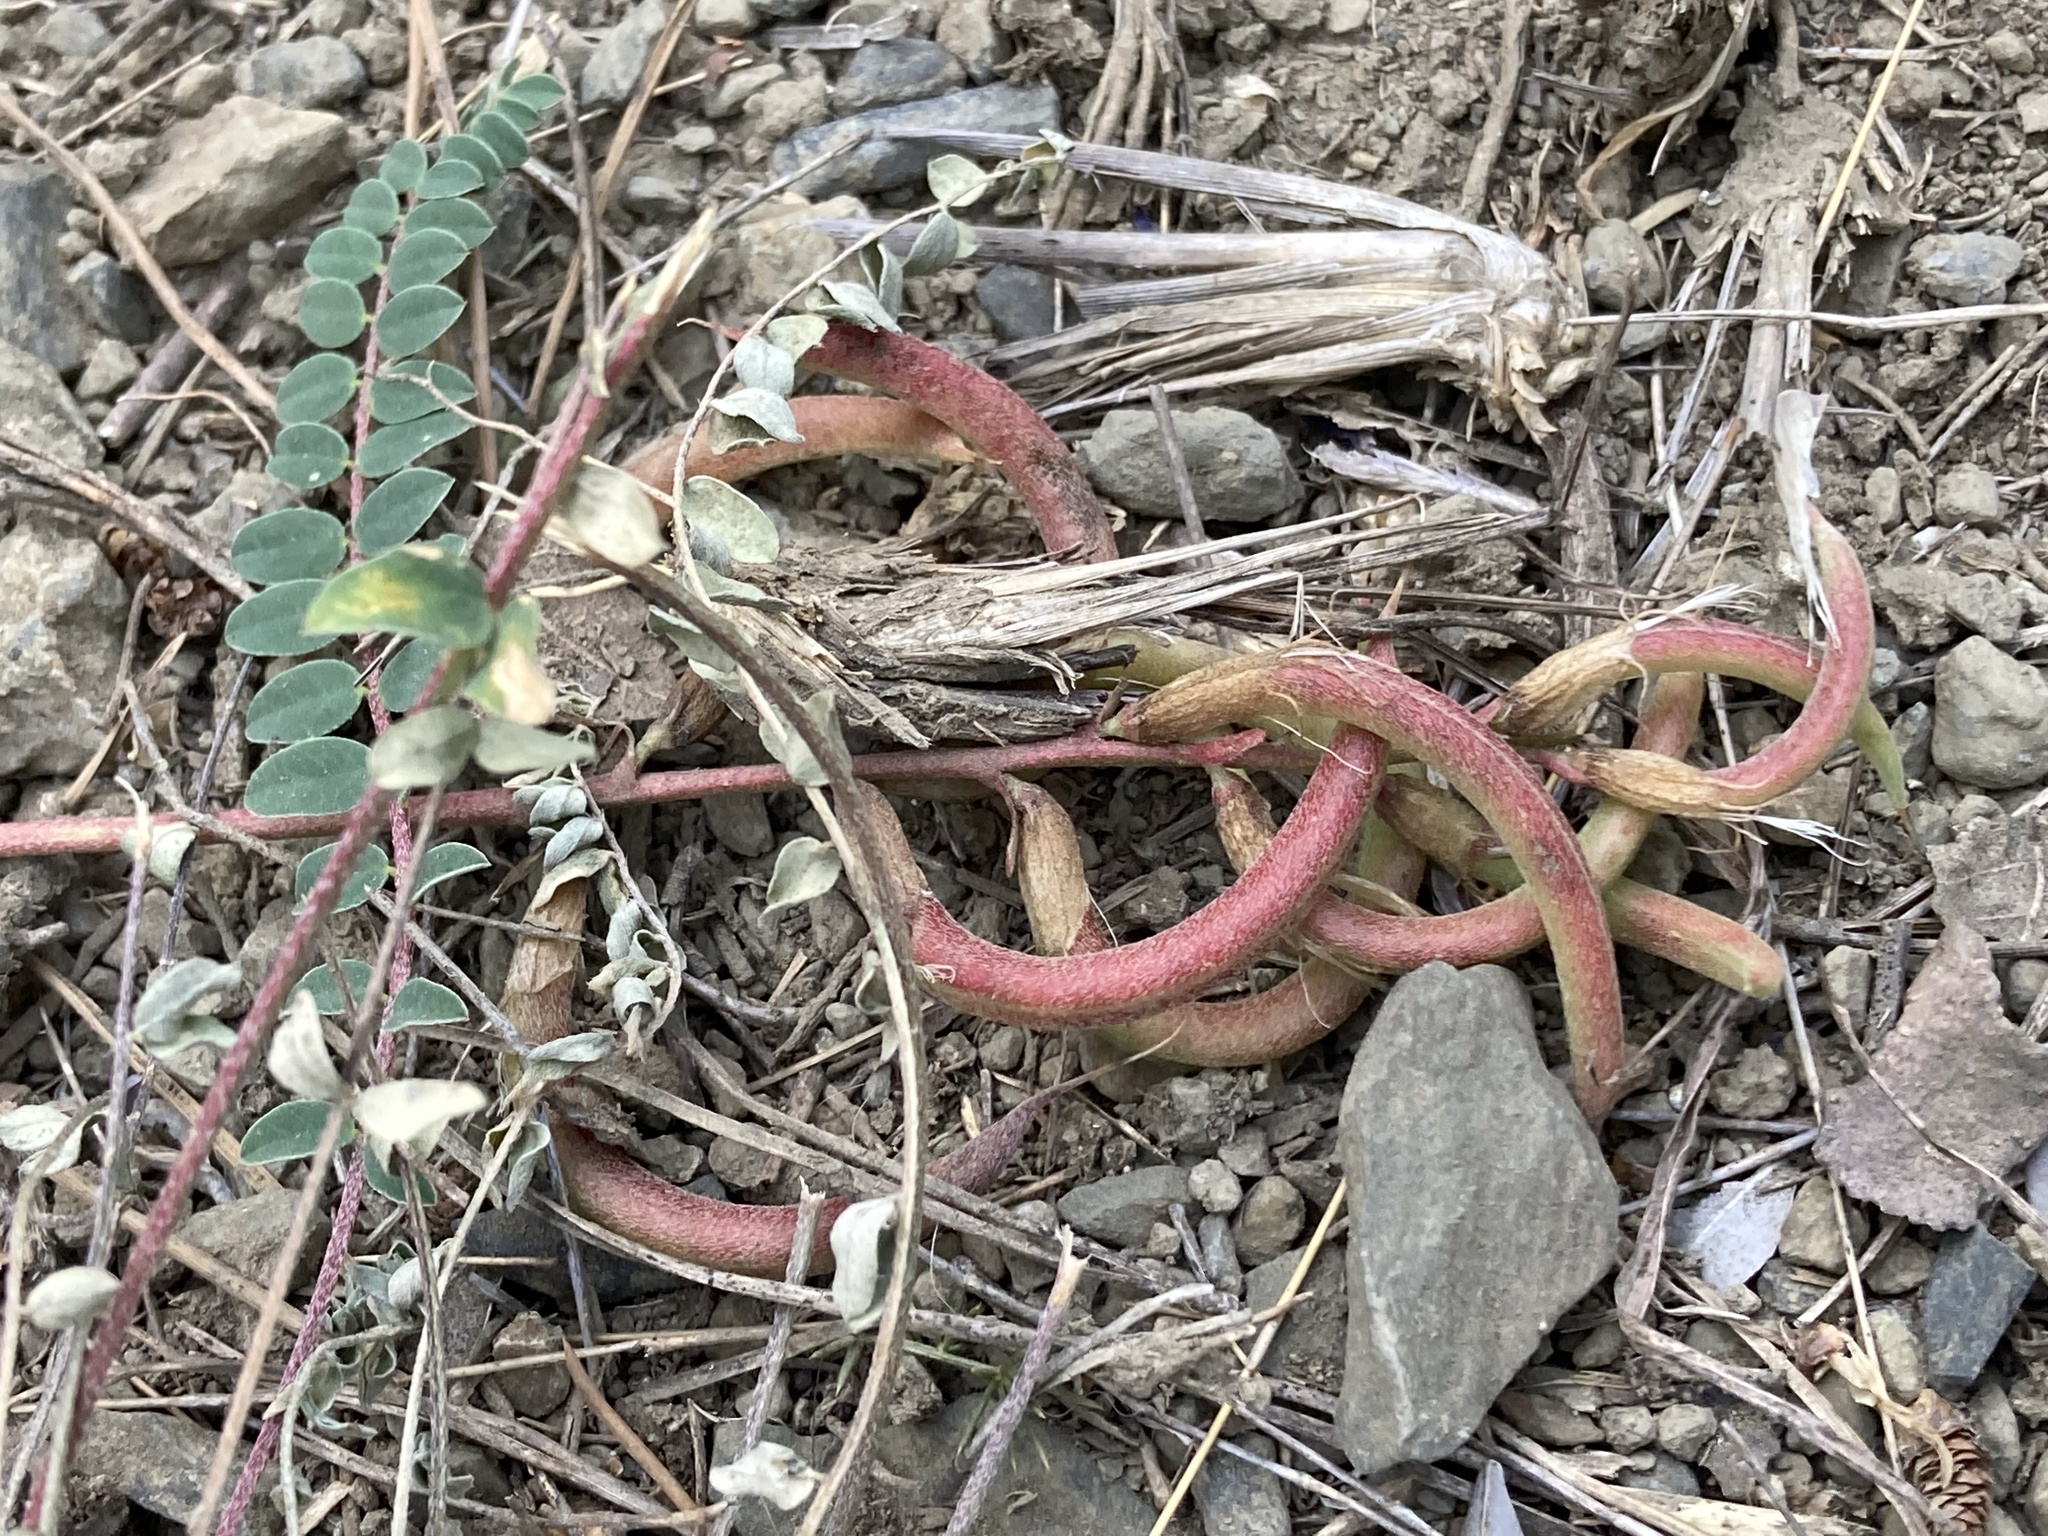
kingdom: Plantae
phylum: Tracheophyta
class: Magnoliopsida
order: Fabales
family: Fabaceae
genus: Astragalus
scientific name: Astragalus monspessulanus
